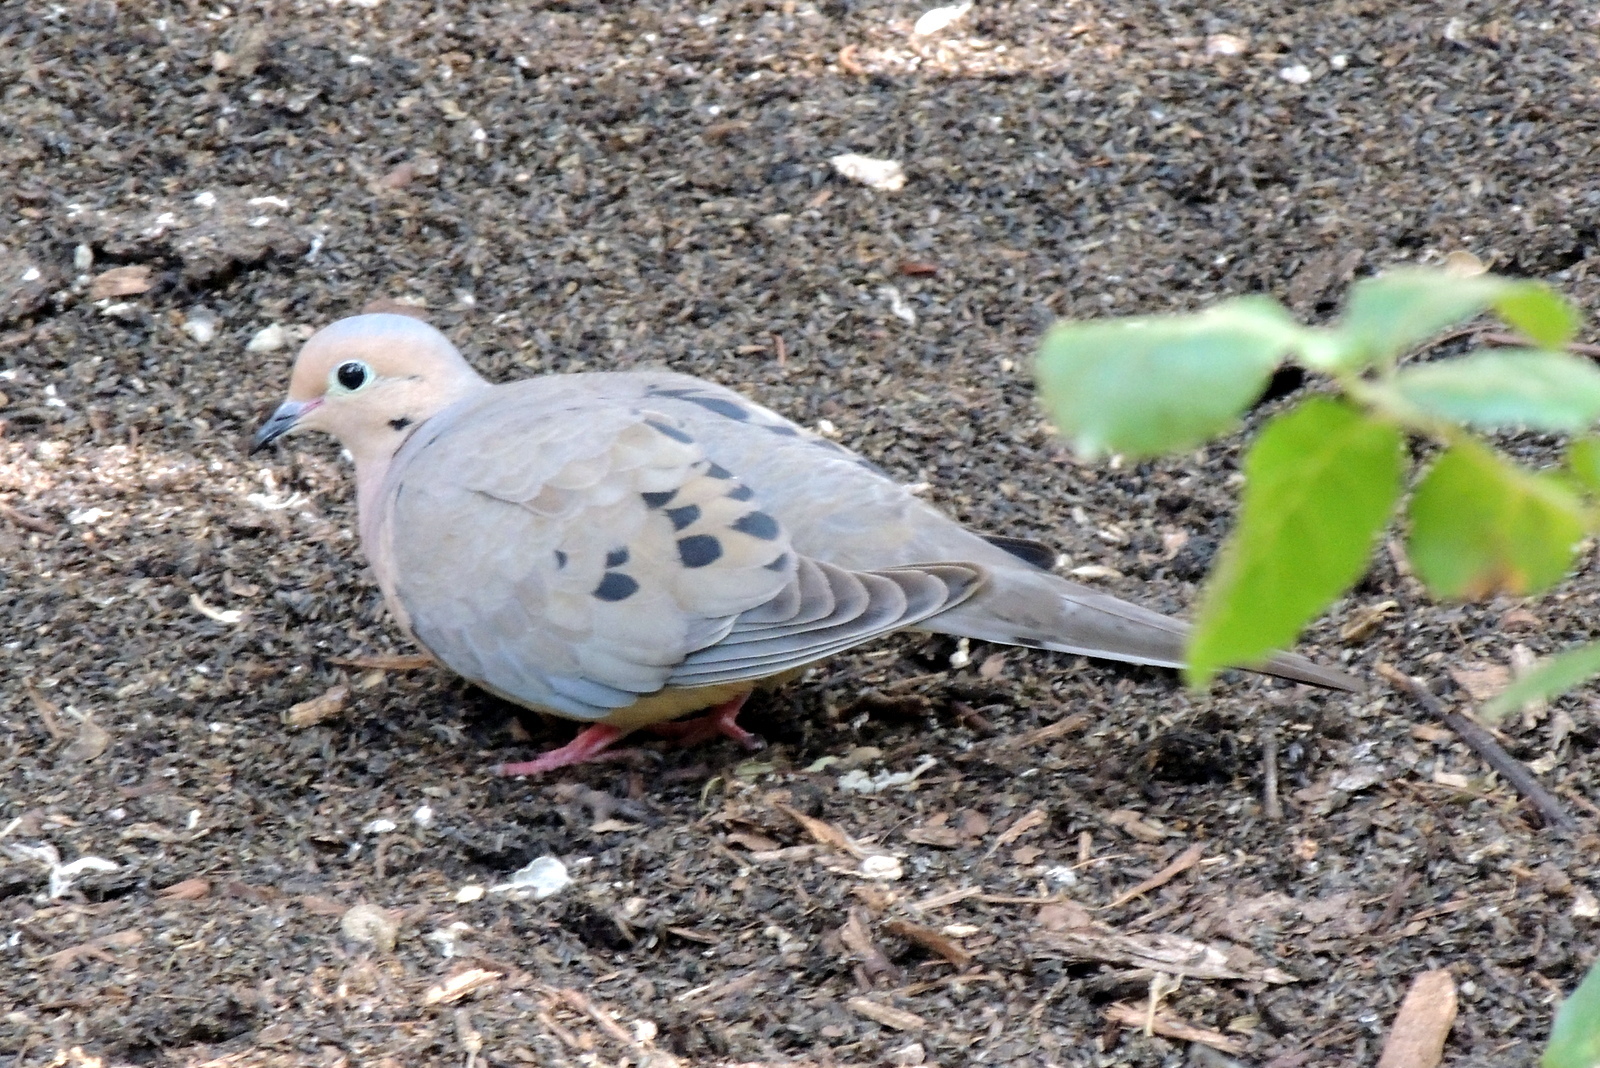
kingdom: Animalia
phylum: Chordata
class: Aves
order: Columbiformes
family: Columbidae
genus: Zenaida
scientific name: Zenaida macroura
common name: Mourning dove
